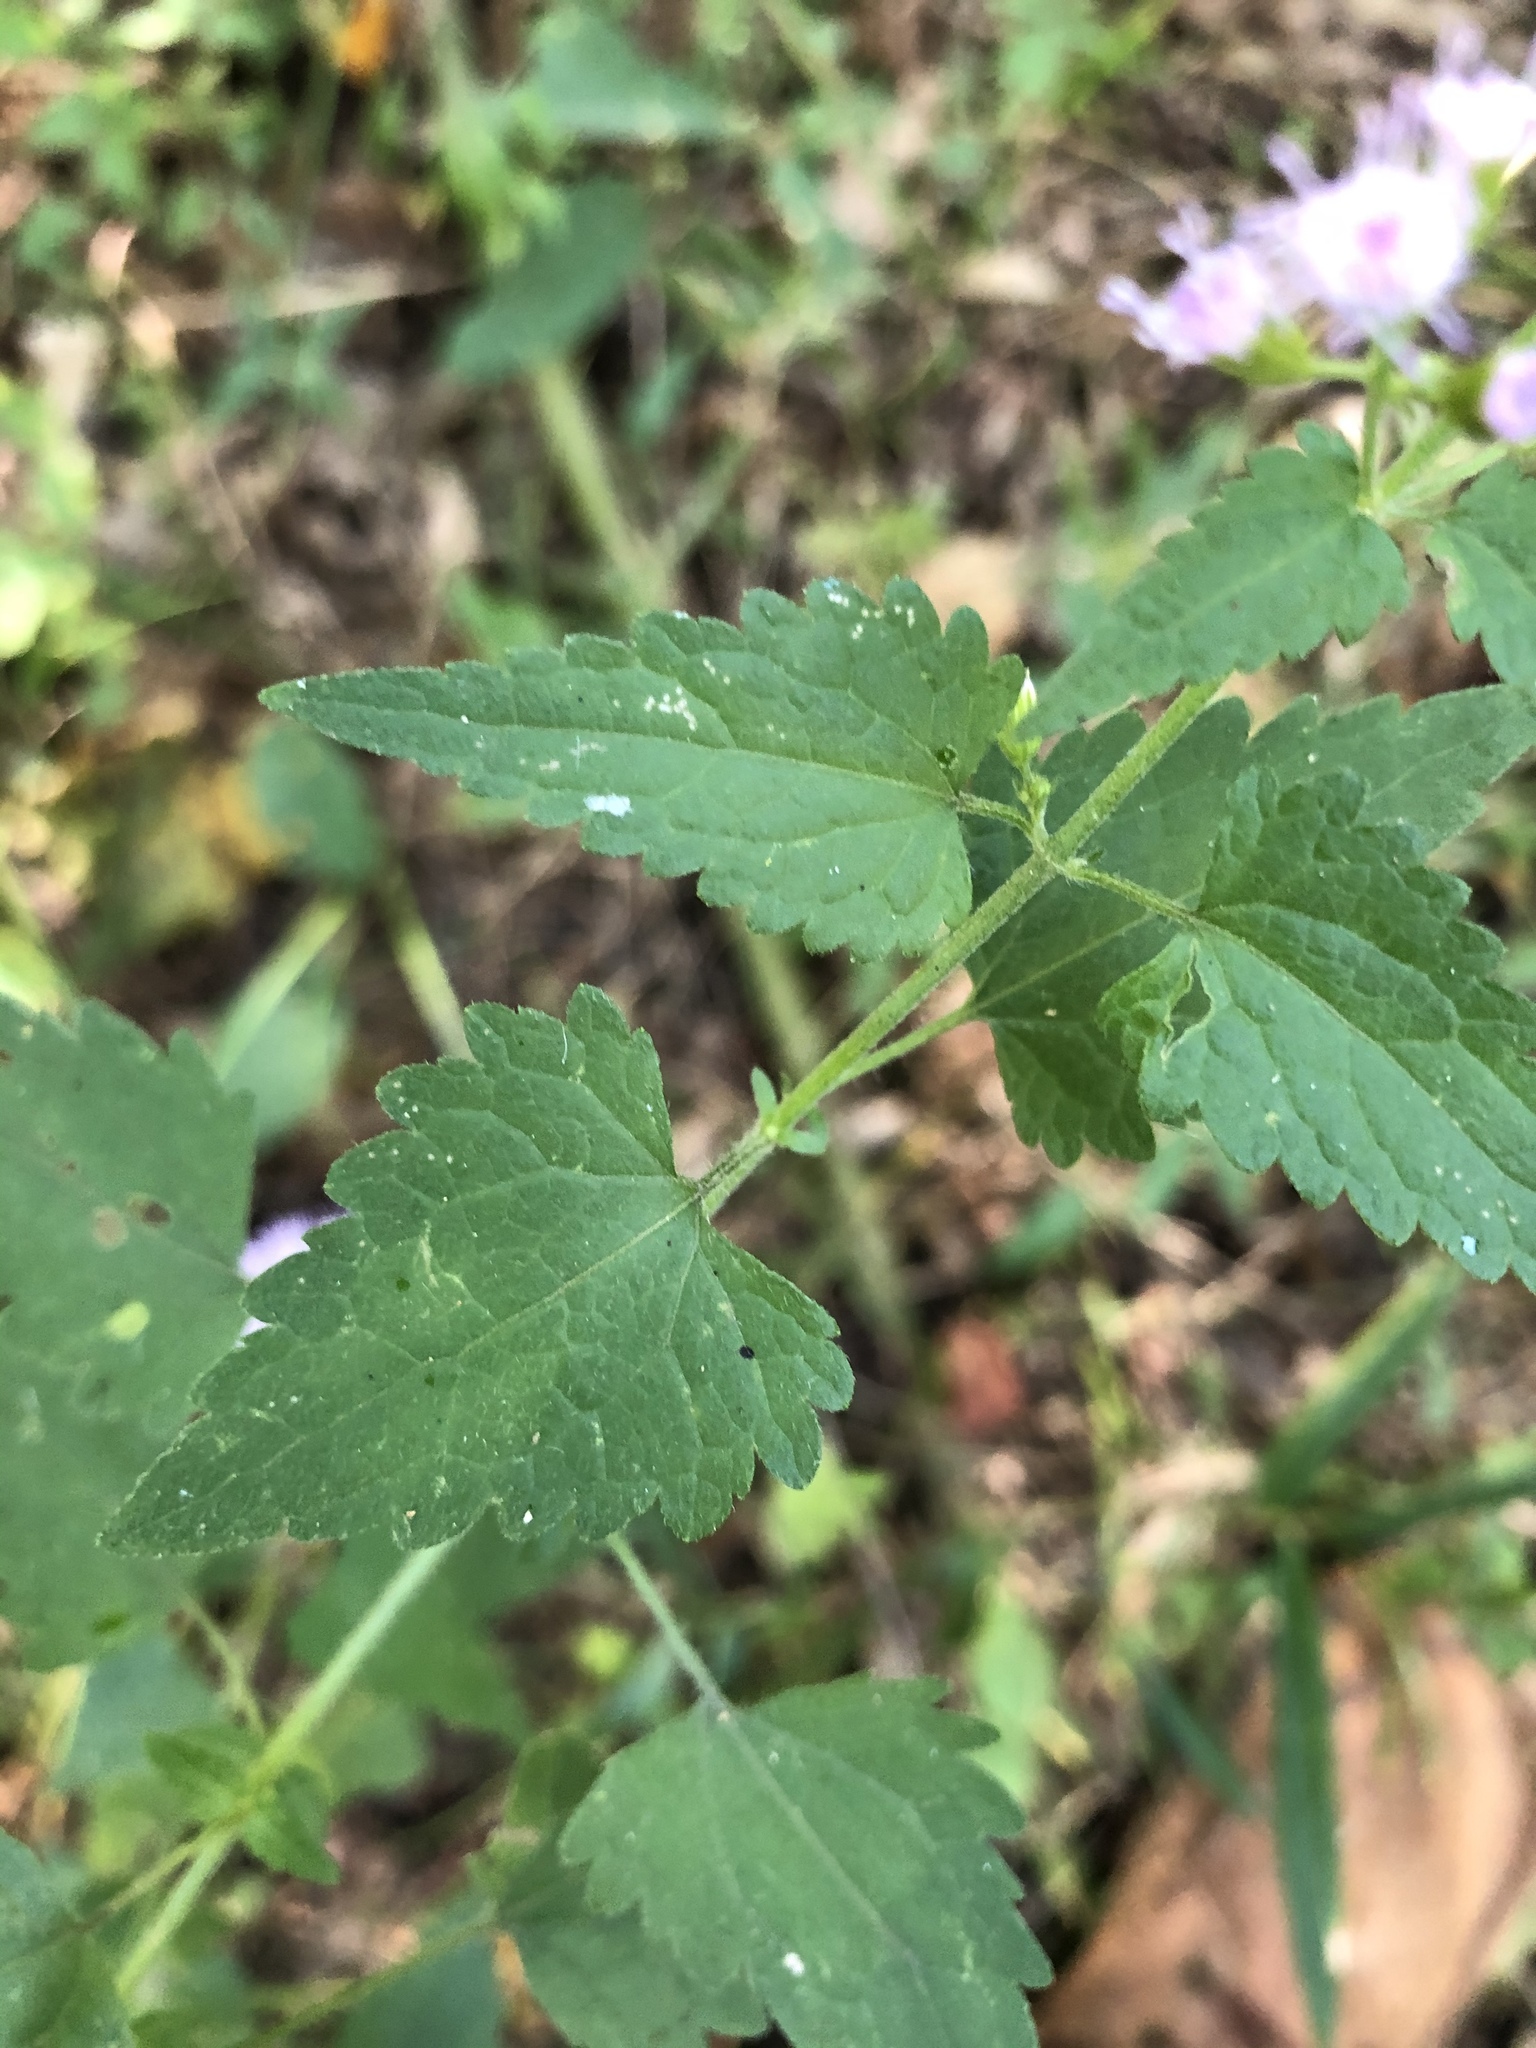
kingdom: Plantae
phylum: Tracheophyta
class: Magnoliopsida
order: Asterales
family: Asteraceae
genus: Fleischmannia
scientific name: Fleischmannia incarnata
